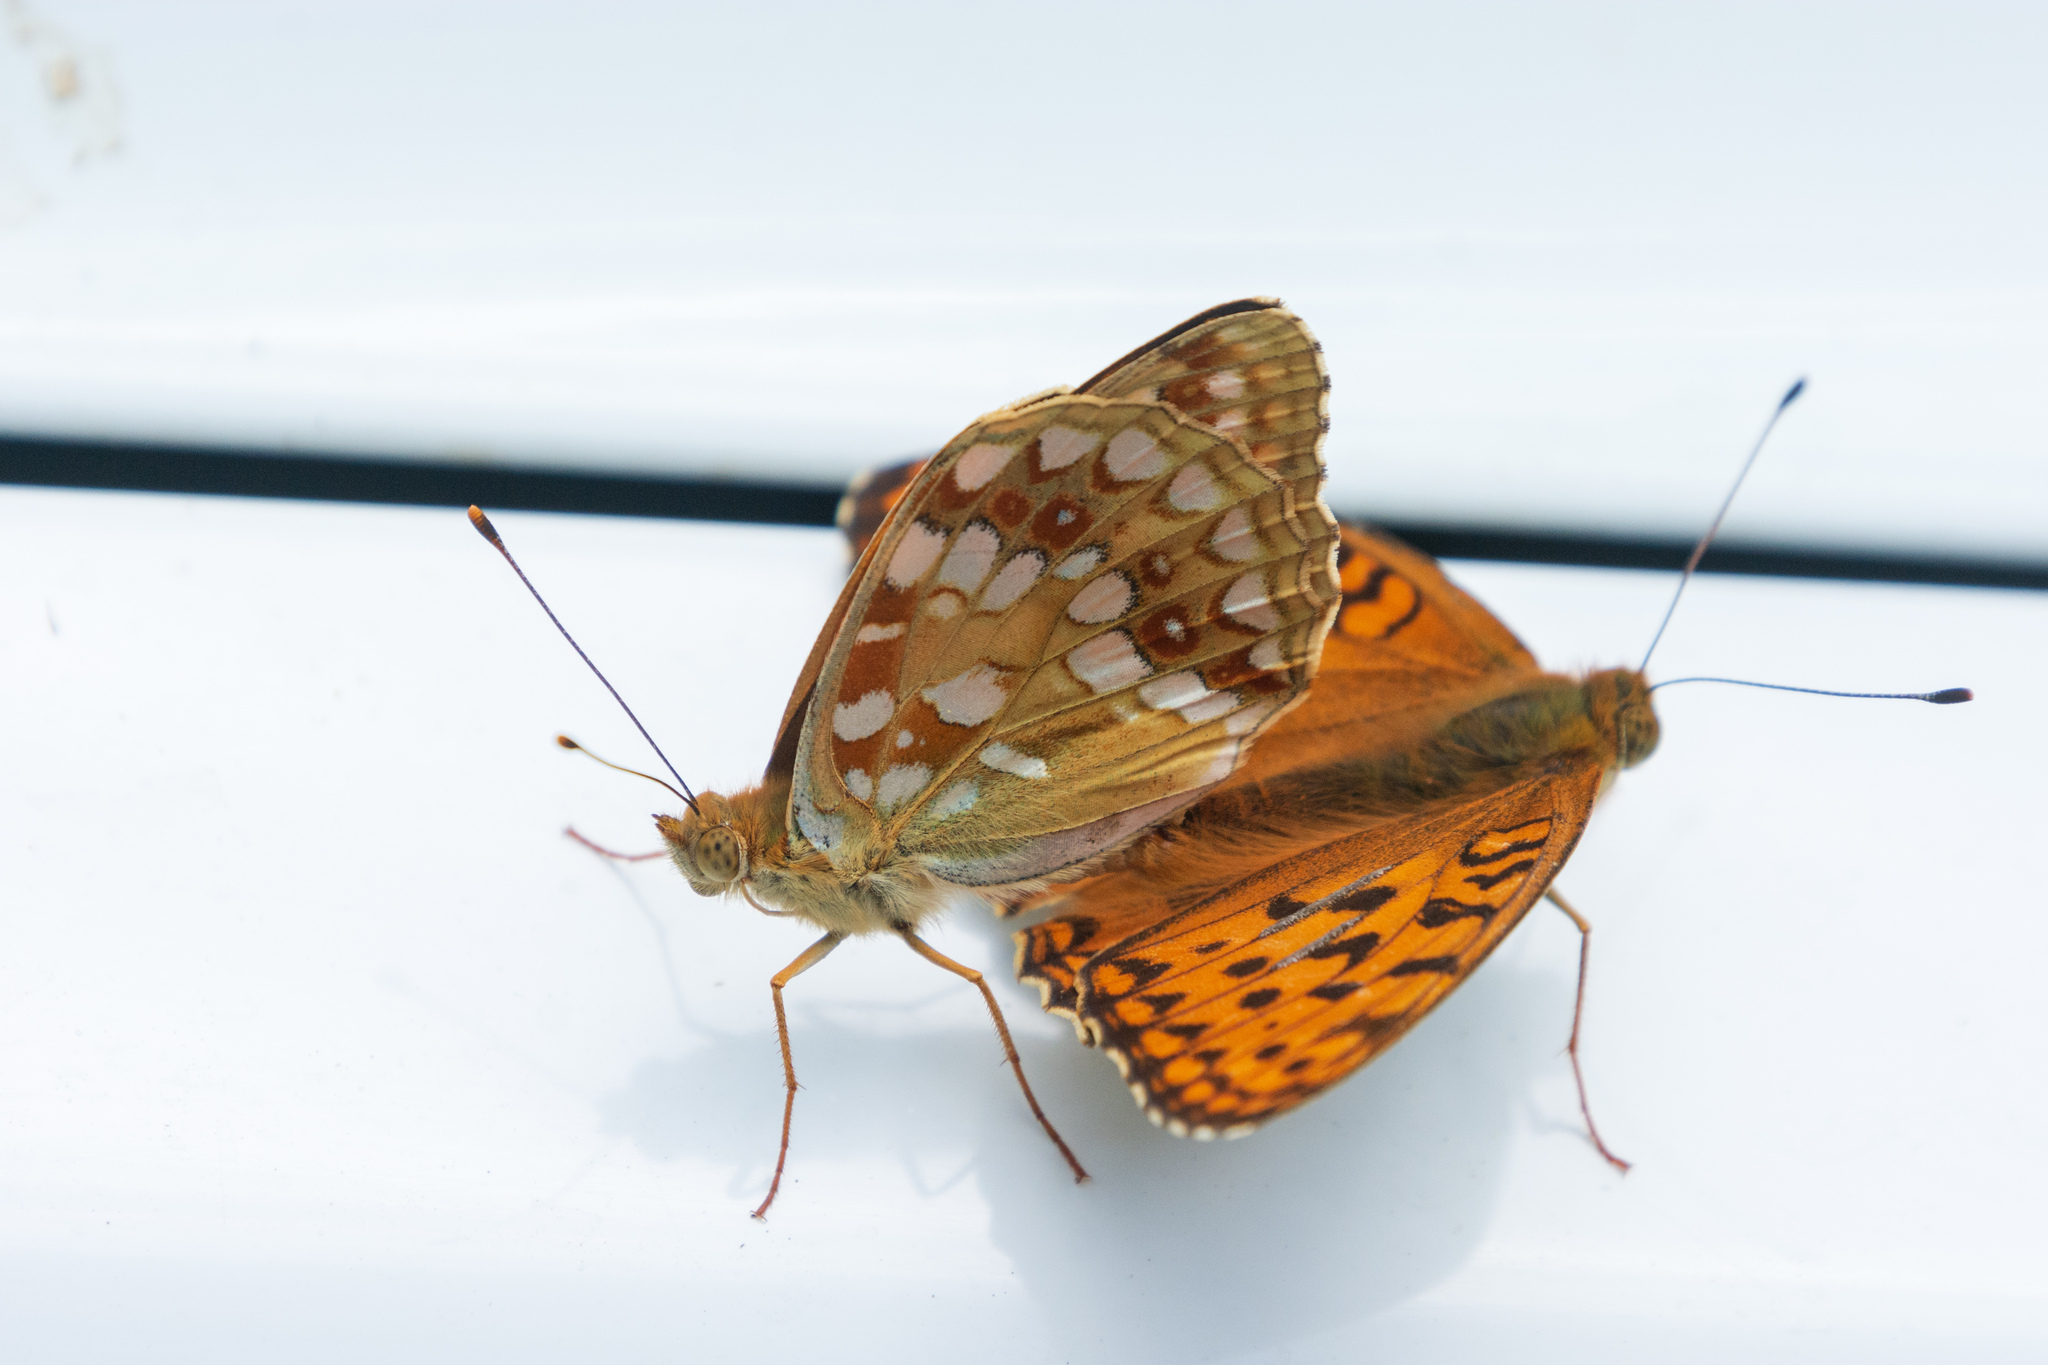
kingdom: Animalia
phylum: Arthropoda
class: Insecta
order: Lepidoptera
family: Nymphalidae
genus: Fabriciana
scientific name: Fabriciana adippe
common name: High brown fritillary
